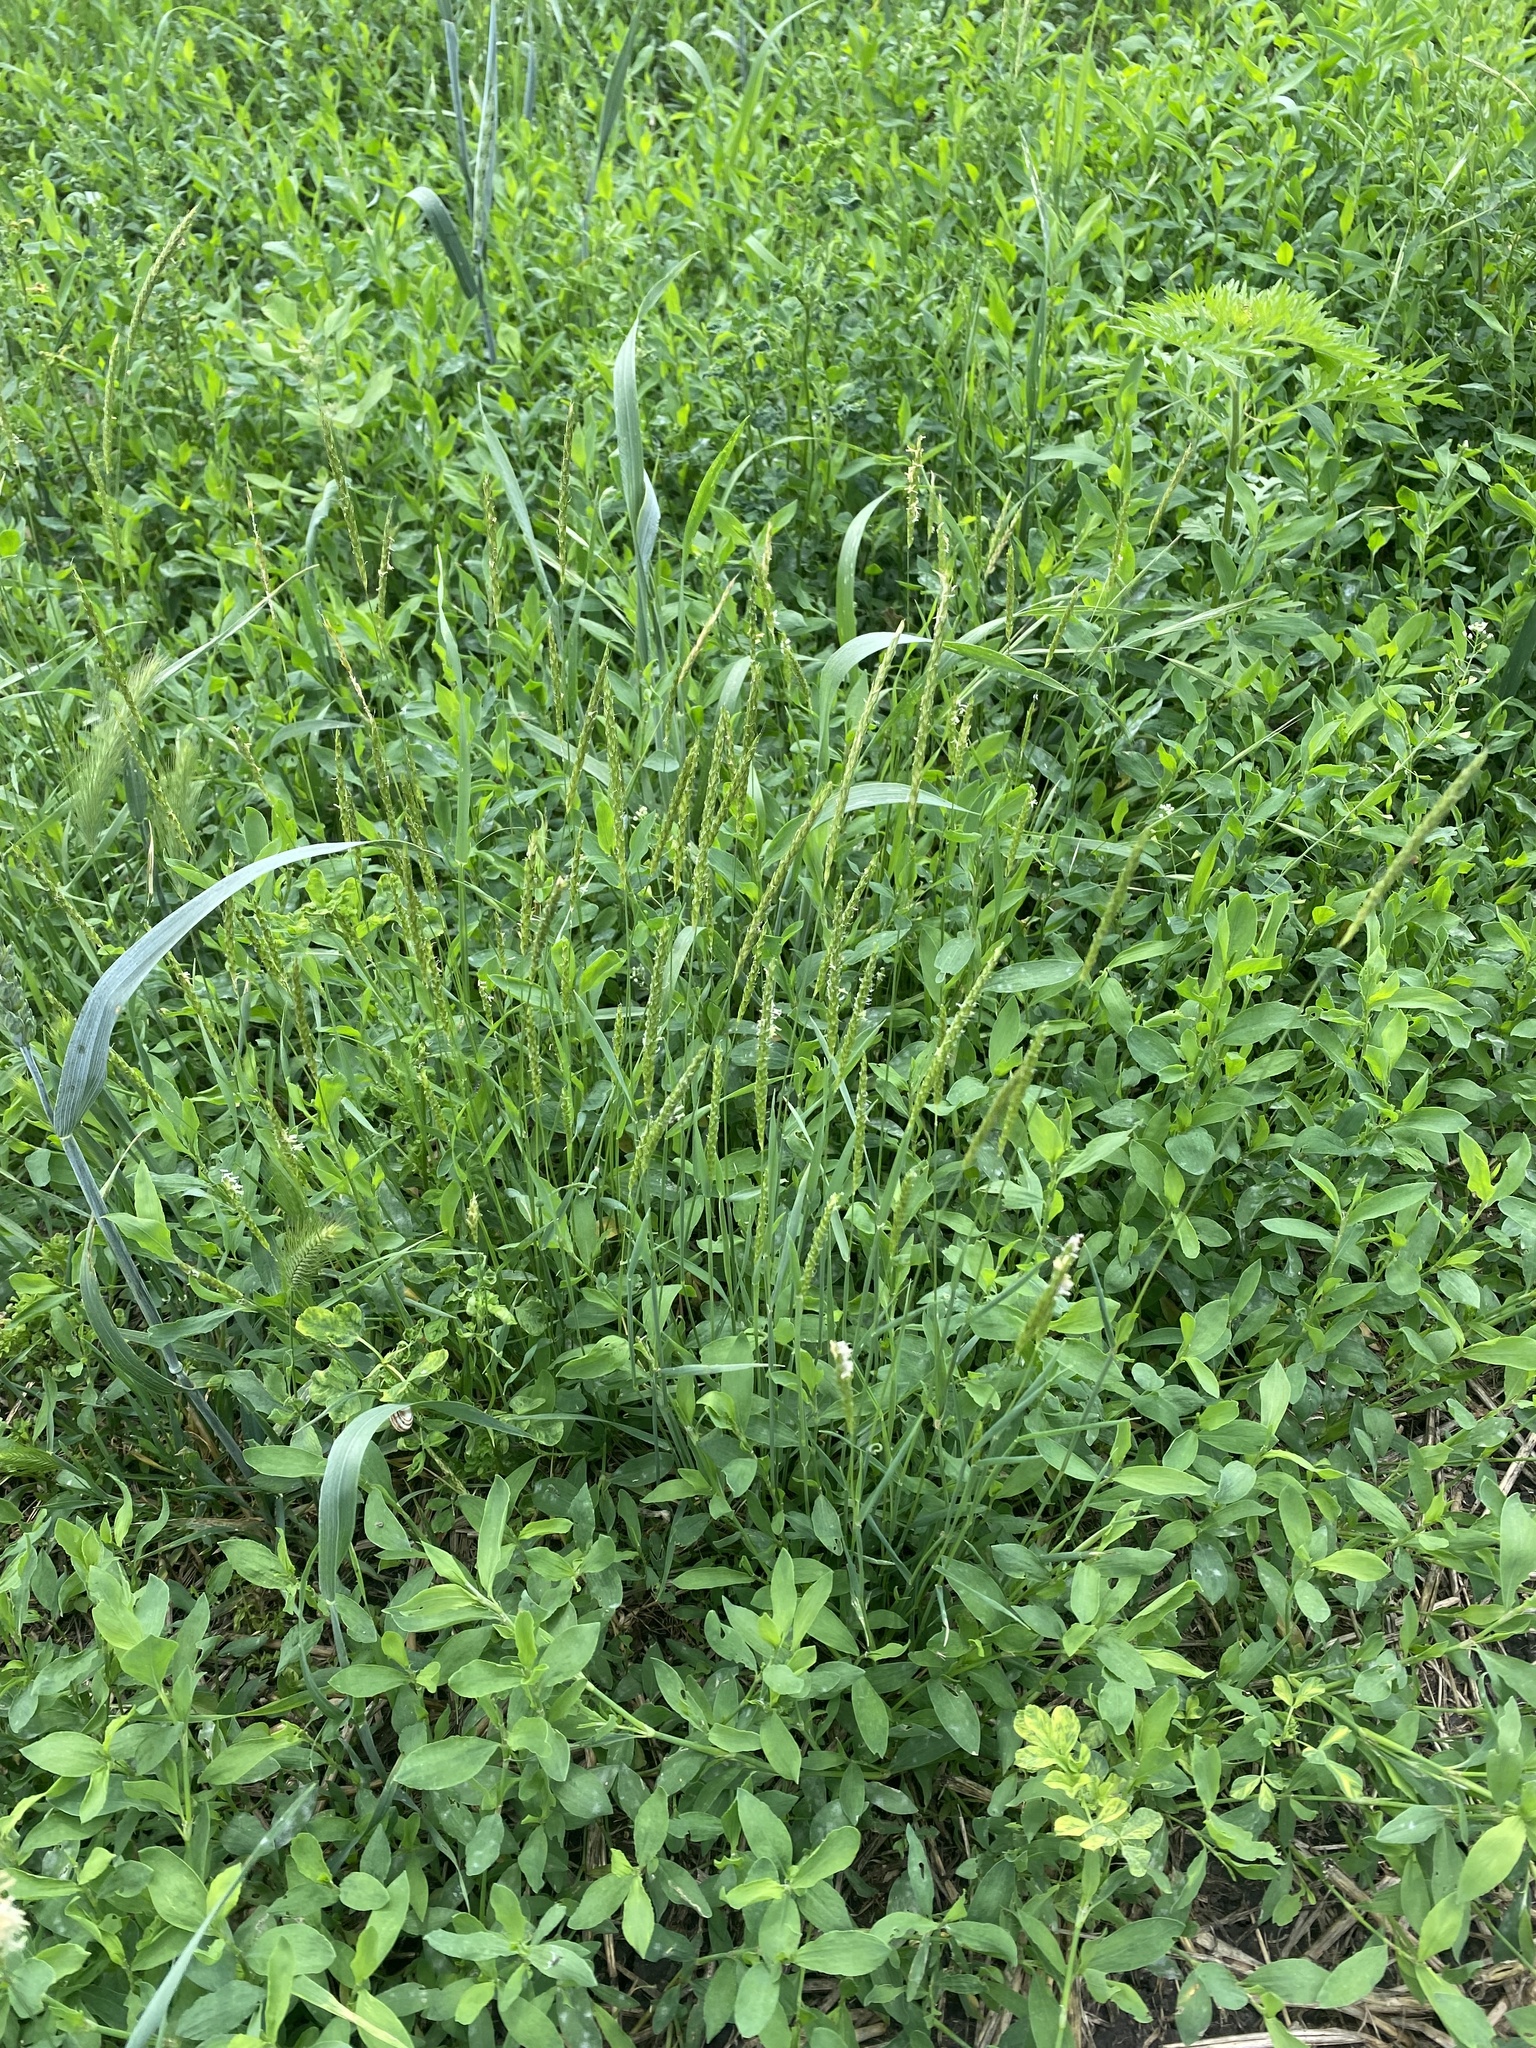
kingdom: Plantae
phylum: Tracheophyta
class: Liliopsida
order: Poales
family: Poaceae
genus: Alopecurus
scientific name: Alopecurus myosuroides
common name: Black-grass
